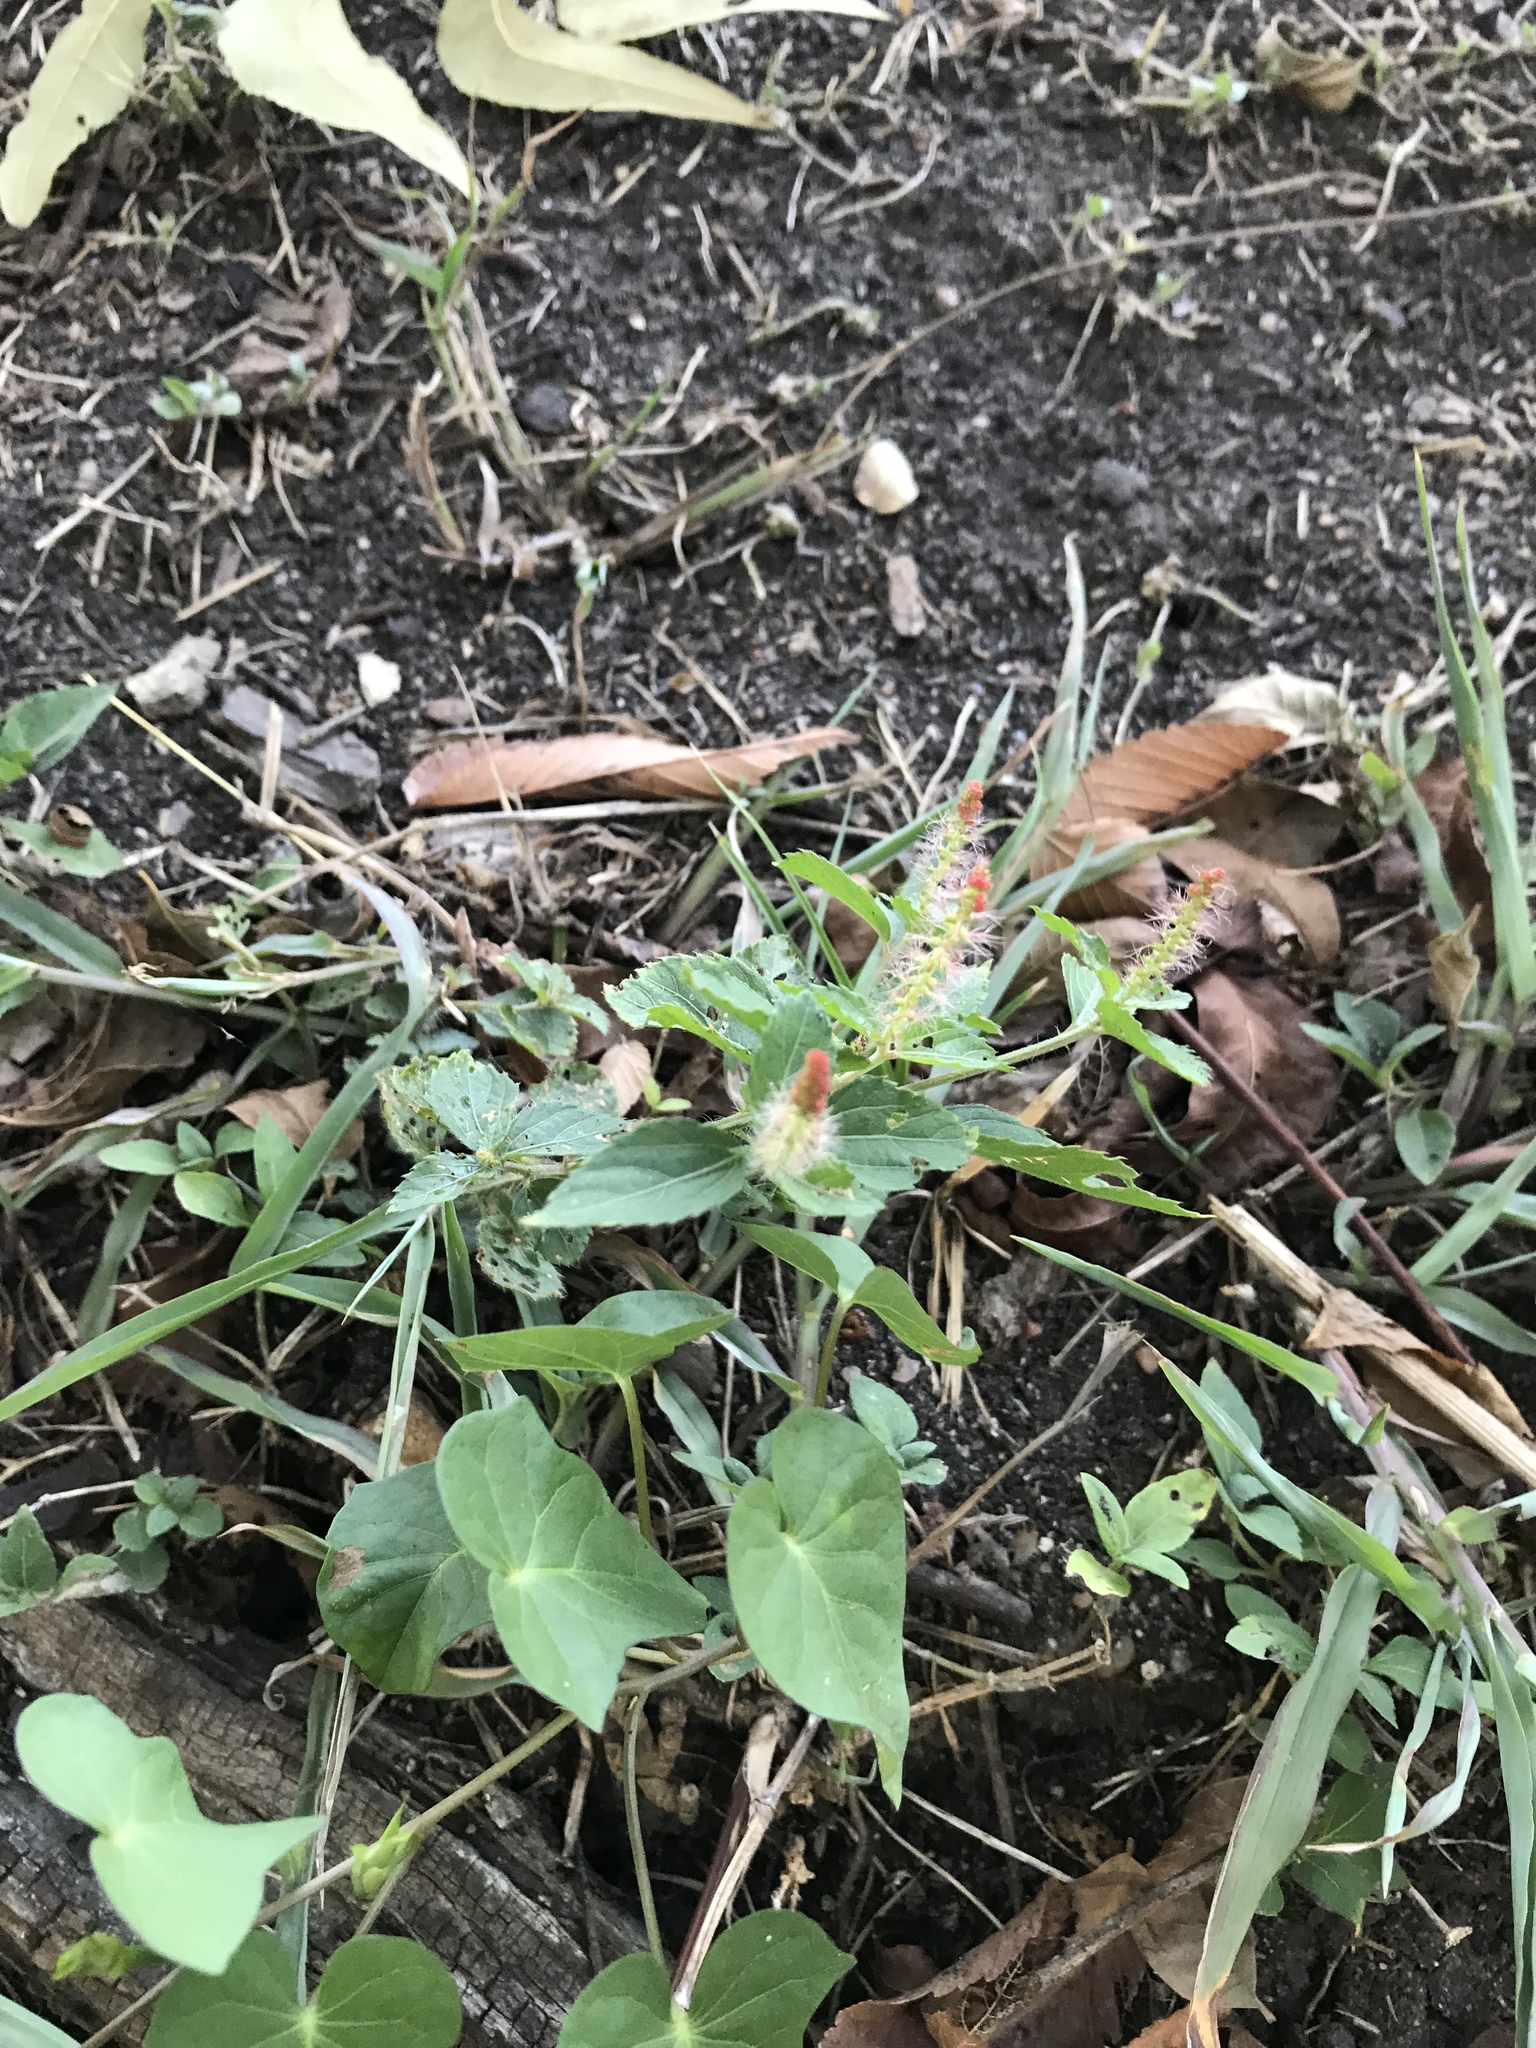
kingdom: Plantae
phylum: Tracheophyta
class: Magnoliopsida
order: Malpighiales
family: Euphorbiaceae
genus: Acalypha
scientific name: Acalypha phleoides
